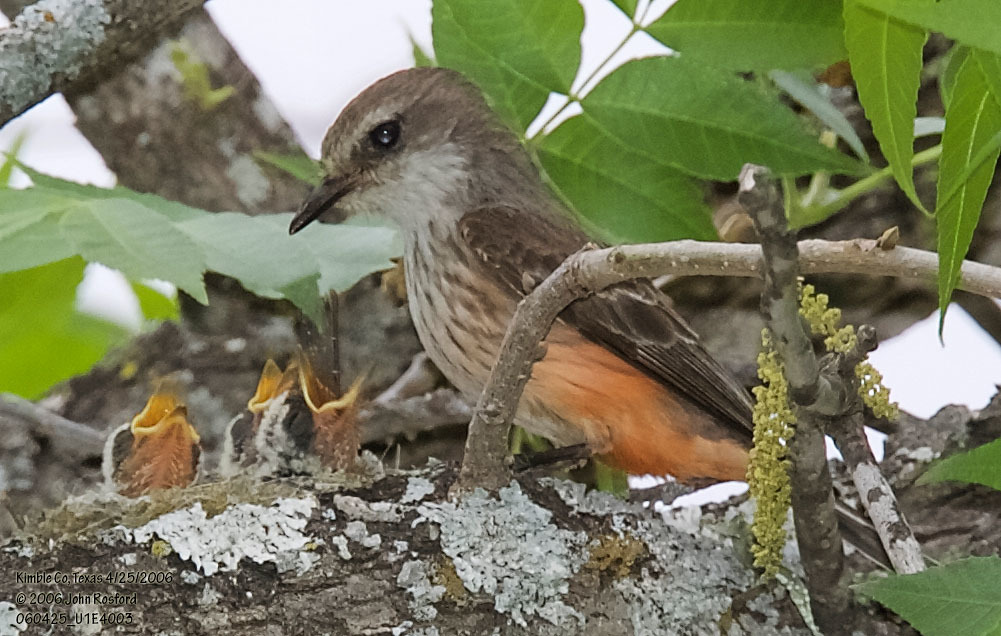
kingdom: Animalia
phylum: Chordata
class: Aves
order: Passeriformes
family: Tyrannidae
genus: Pyrocephalus
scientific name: Pyrocephalus rubinus
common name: Vermilion flycatcher
